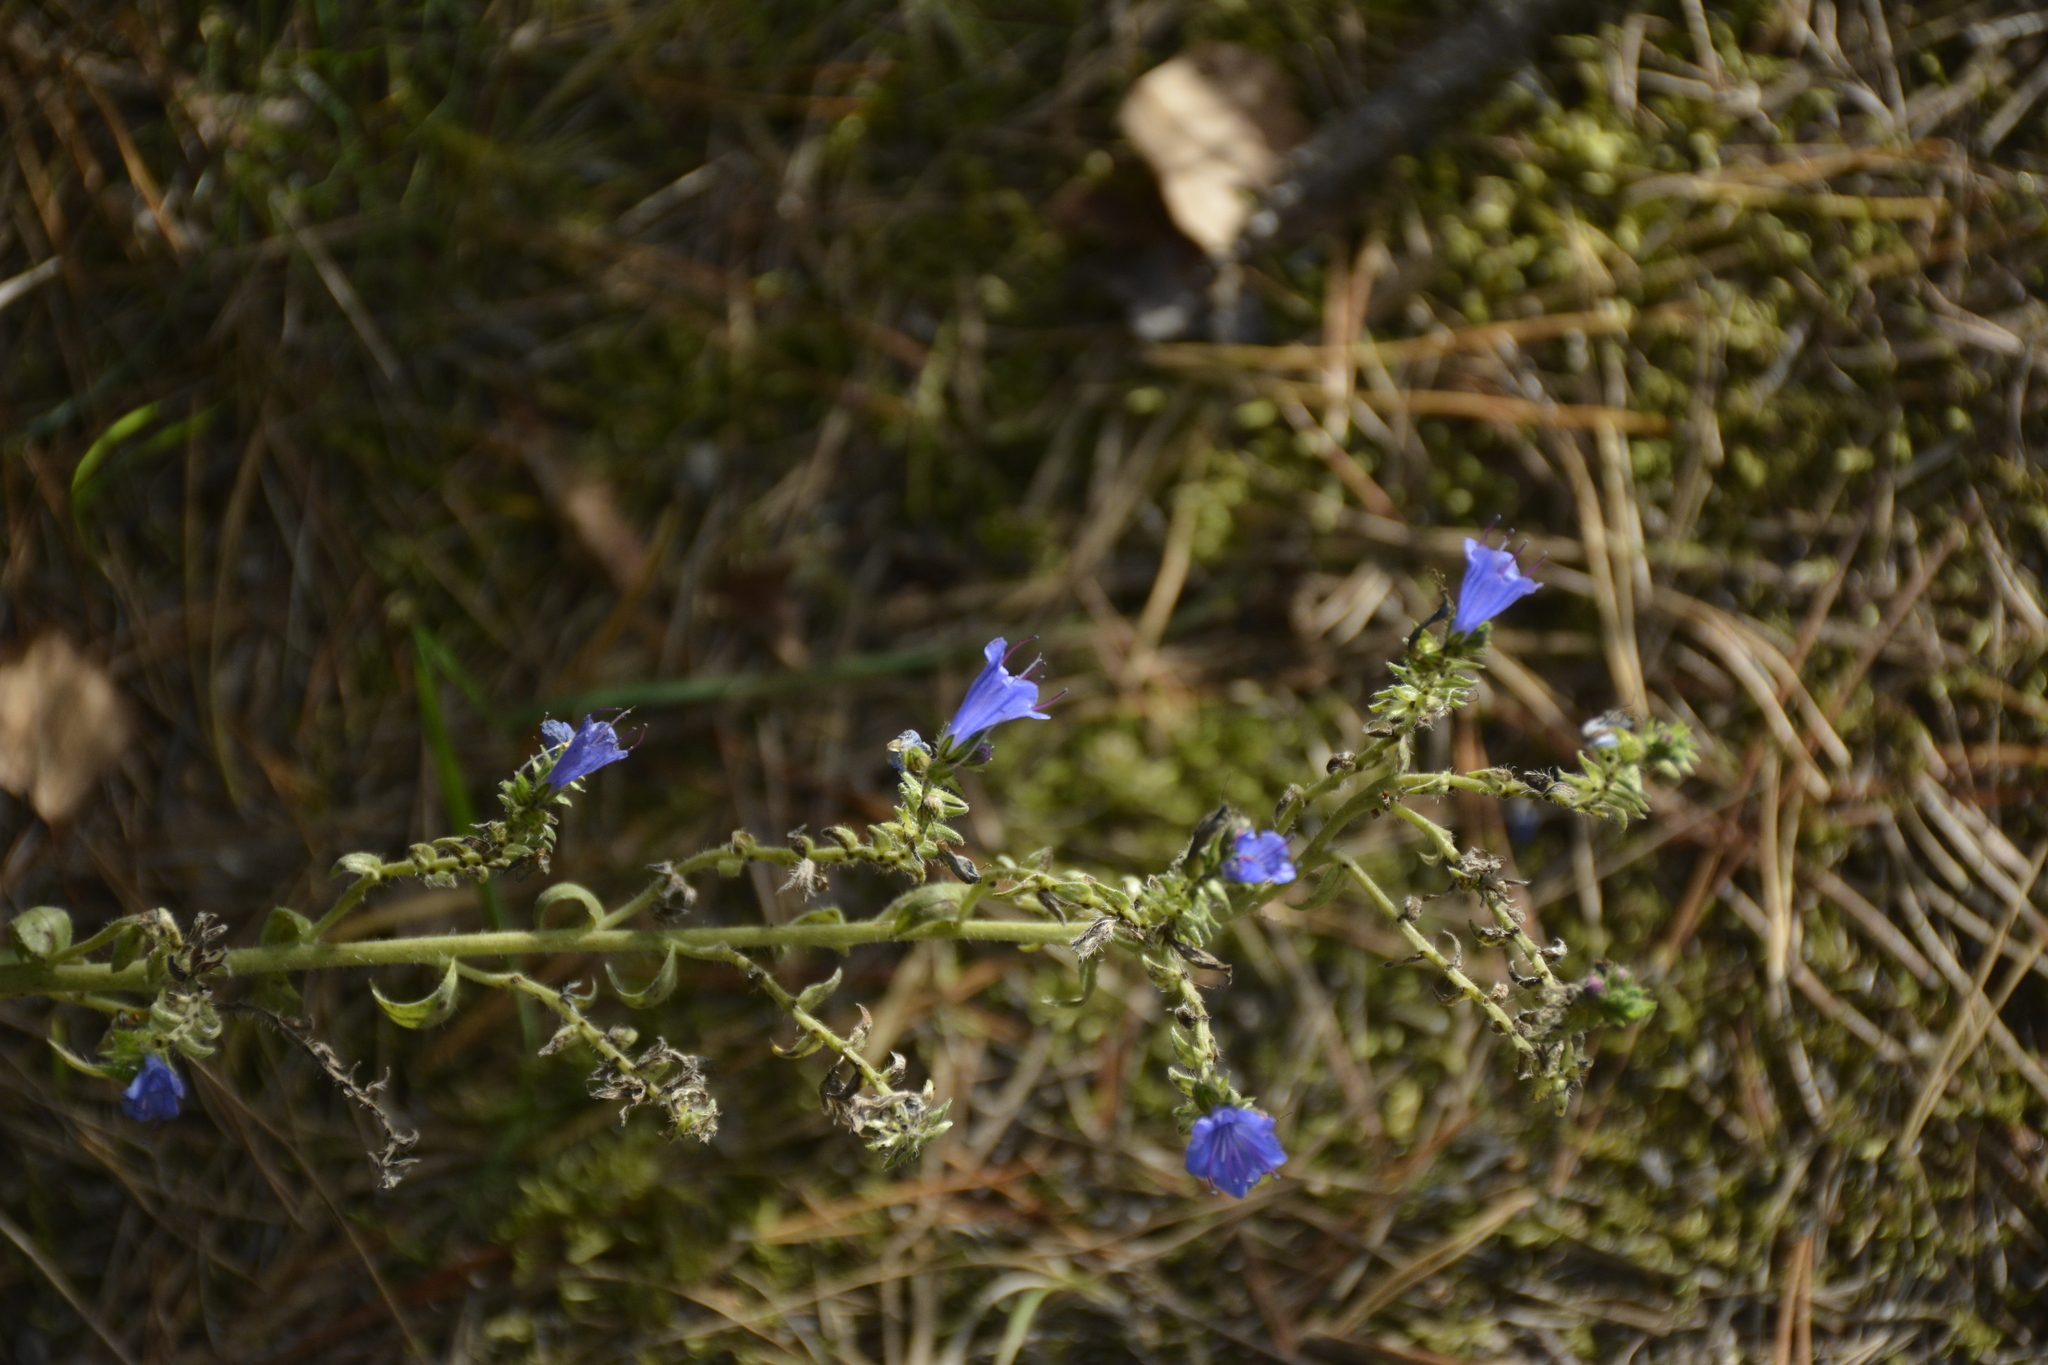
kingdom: Plantae
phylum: Tracheophyta
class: Magnoliopsida
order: Boraginales
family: Boraginaceae
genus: Echium
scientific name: Echium vulgare
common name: Common viper's bugloss
